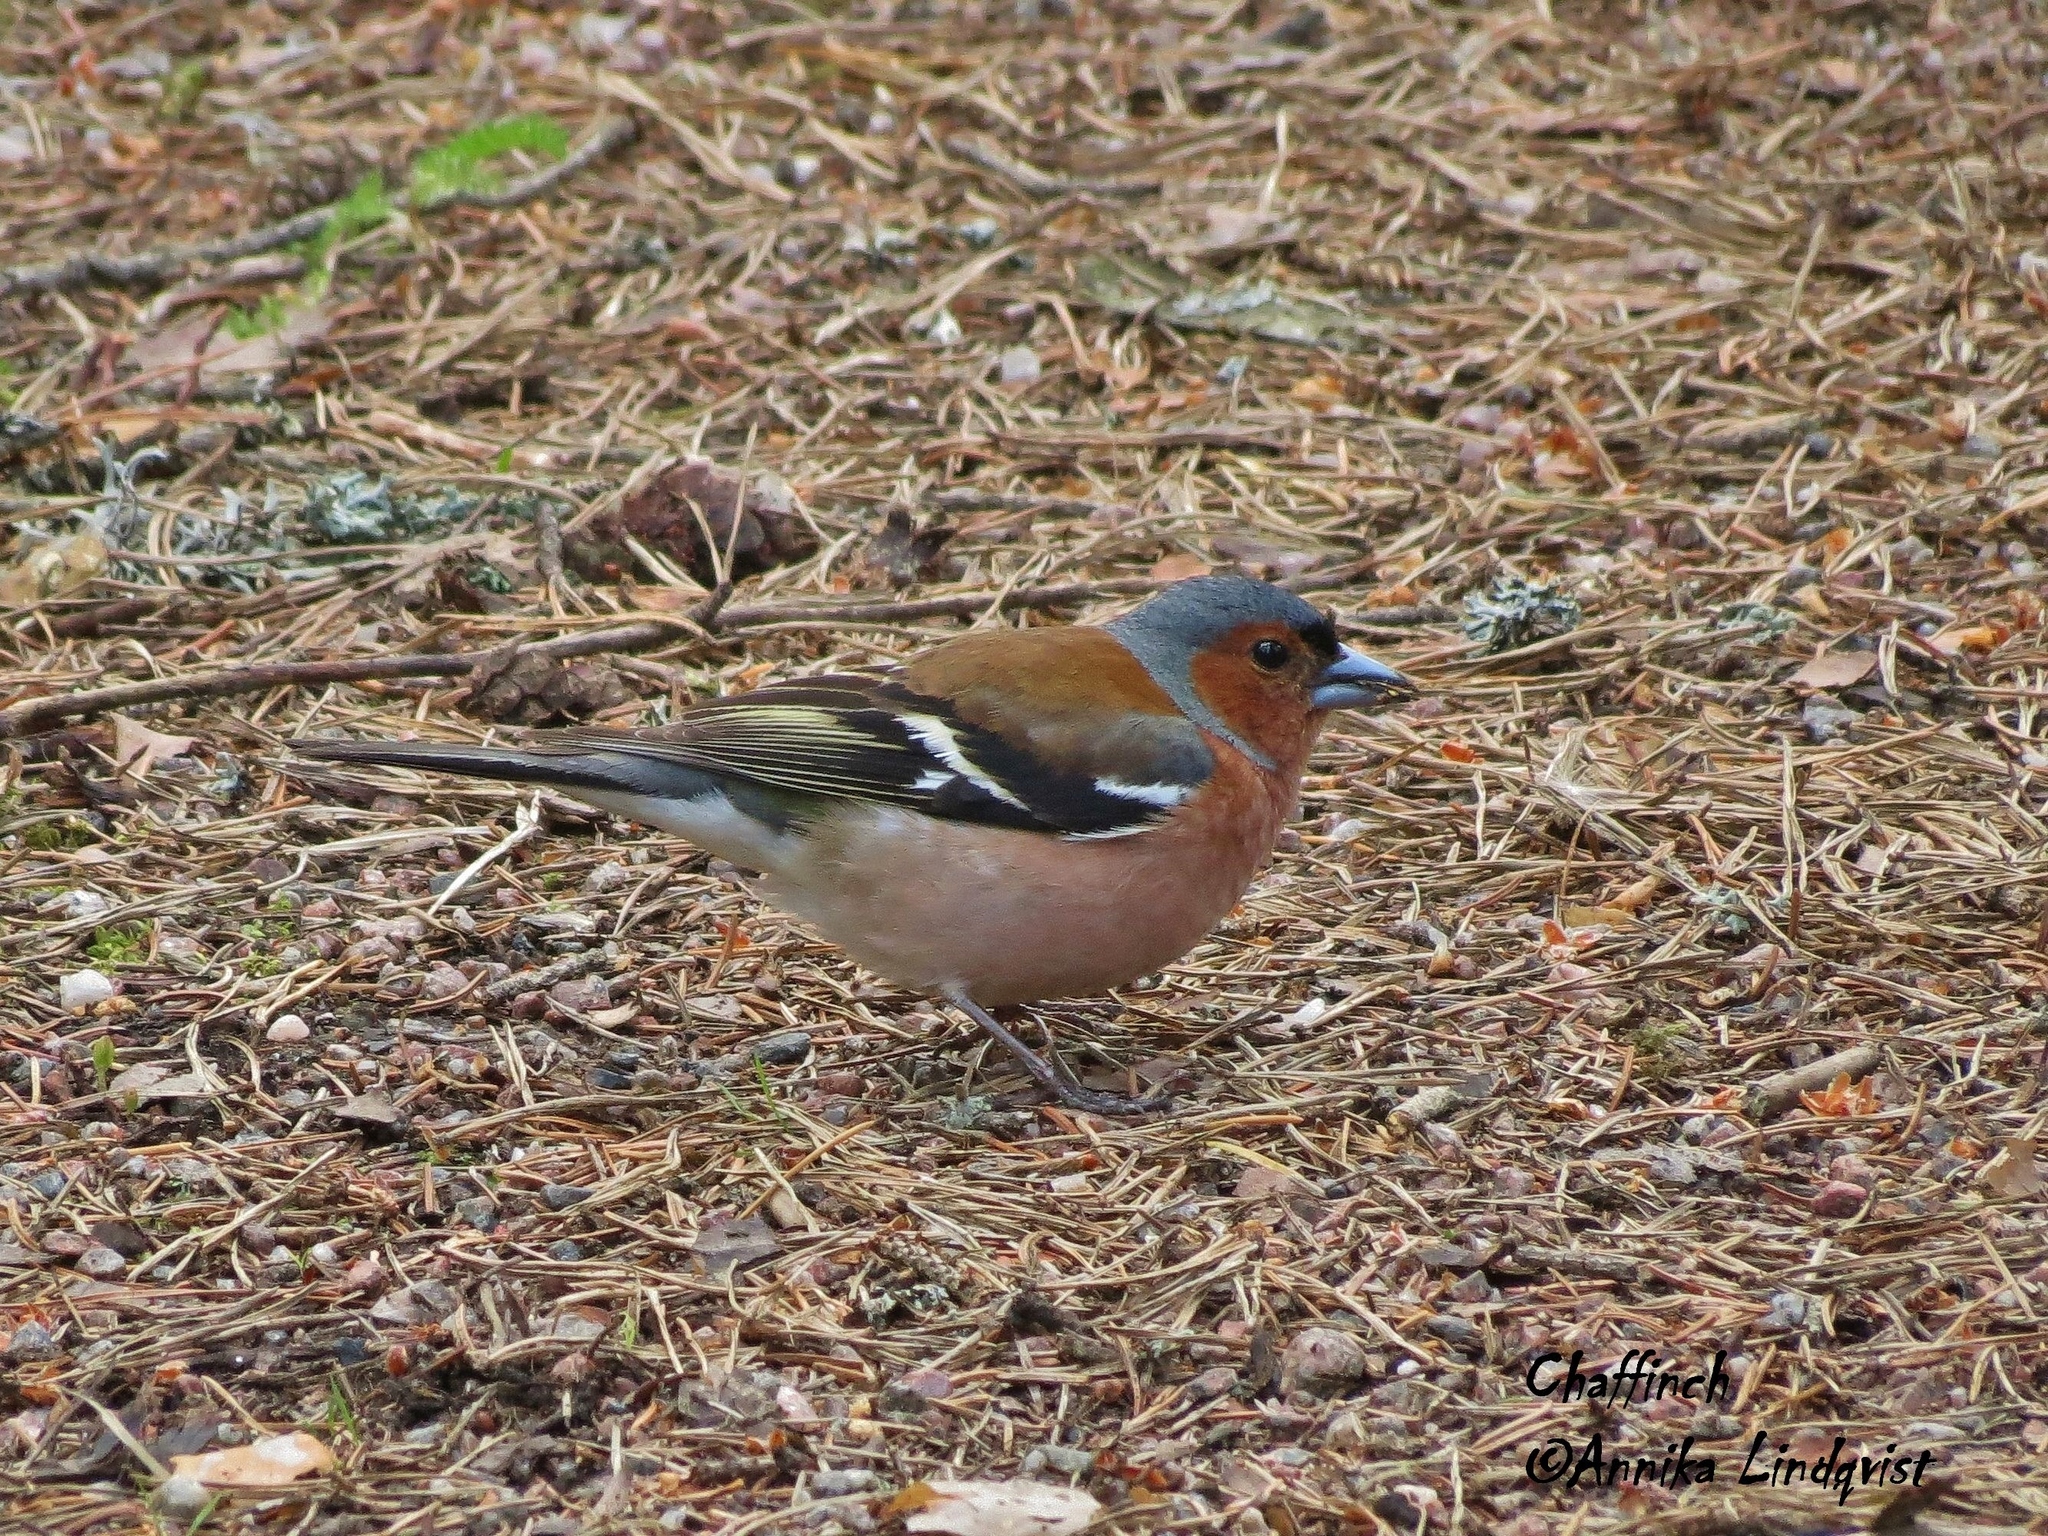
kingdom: Animalia
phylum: Chordata
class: Aves
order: Passeriformes
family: Fringillidae
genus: Fringilla
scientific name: Fringilla coelebs
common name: Common chaffinch
